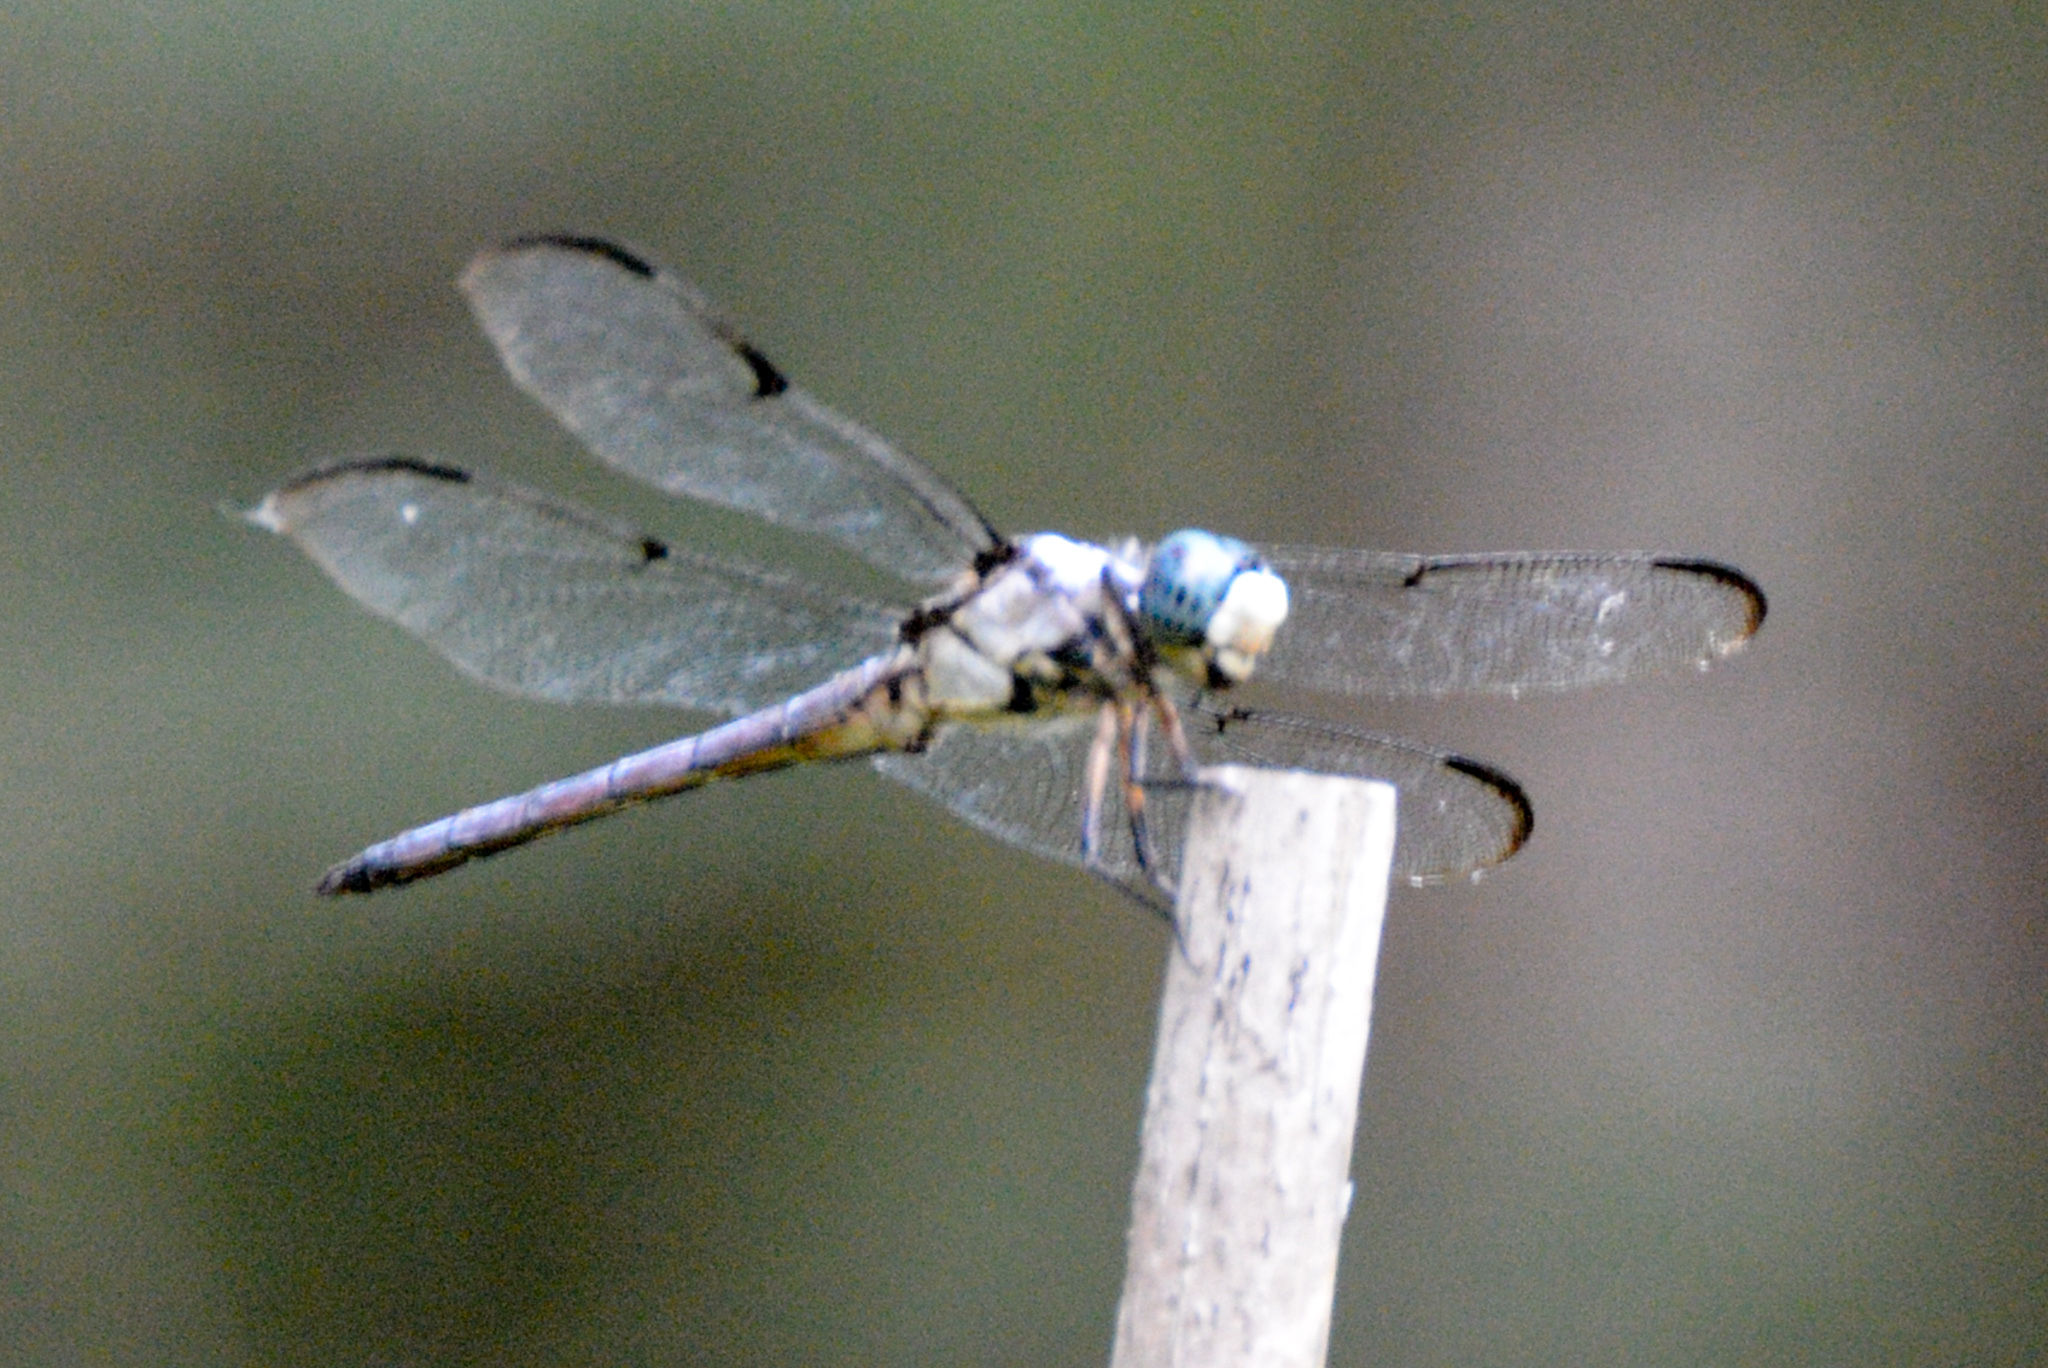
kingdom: Animalia
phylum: Arthropoda
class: Insecta
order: Odonata
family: Libellulidae
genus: Libellula
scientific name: Libellula vibrans
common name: Great blue skimmer
